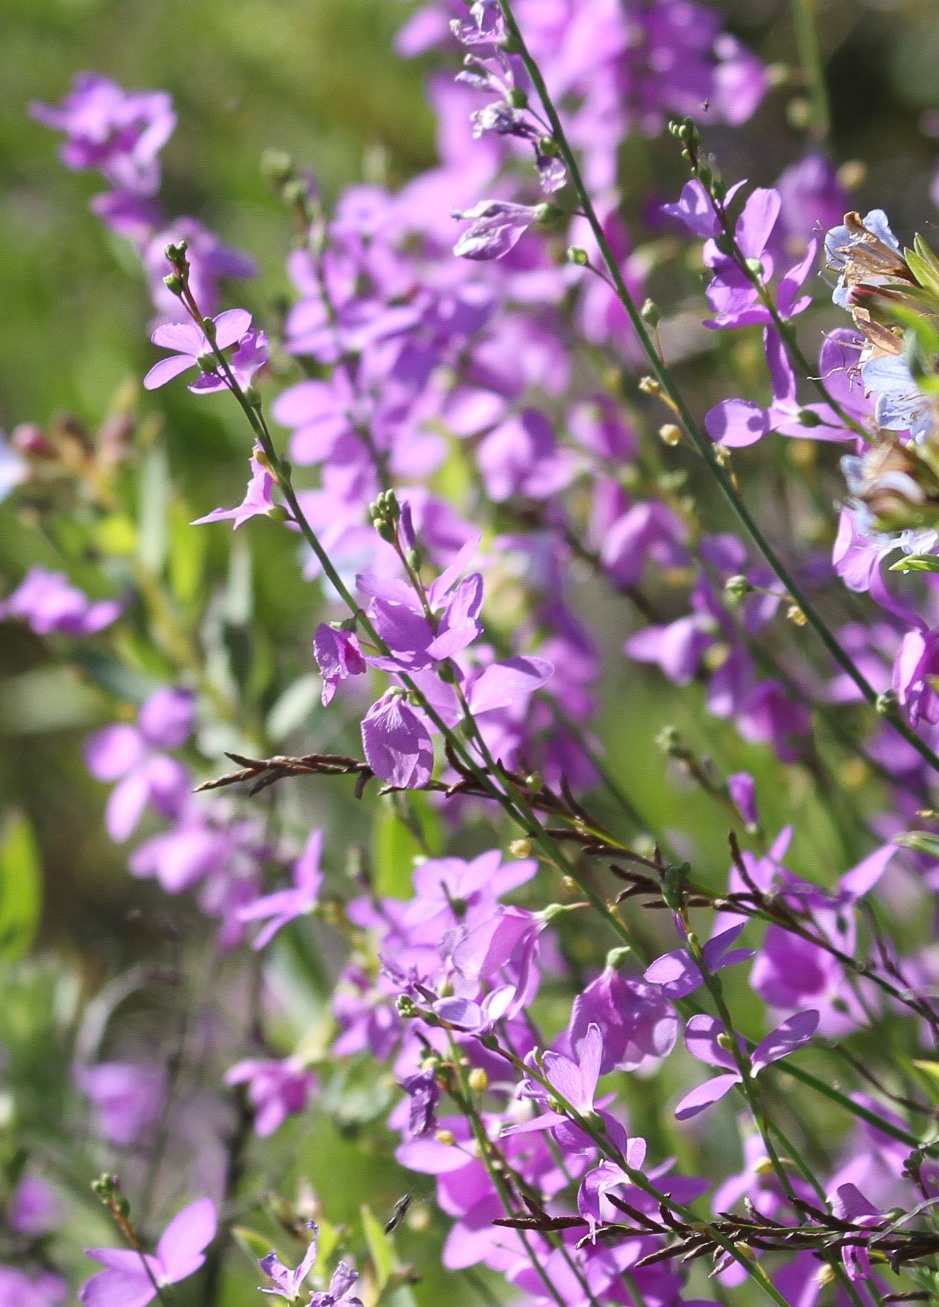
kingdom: Plantae
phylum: Tracheophyta
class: Magnoliopsida
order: Brassicales
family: Brassicaceae
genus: Heliophila
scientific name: Heliophila juncea
